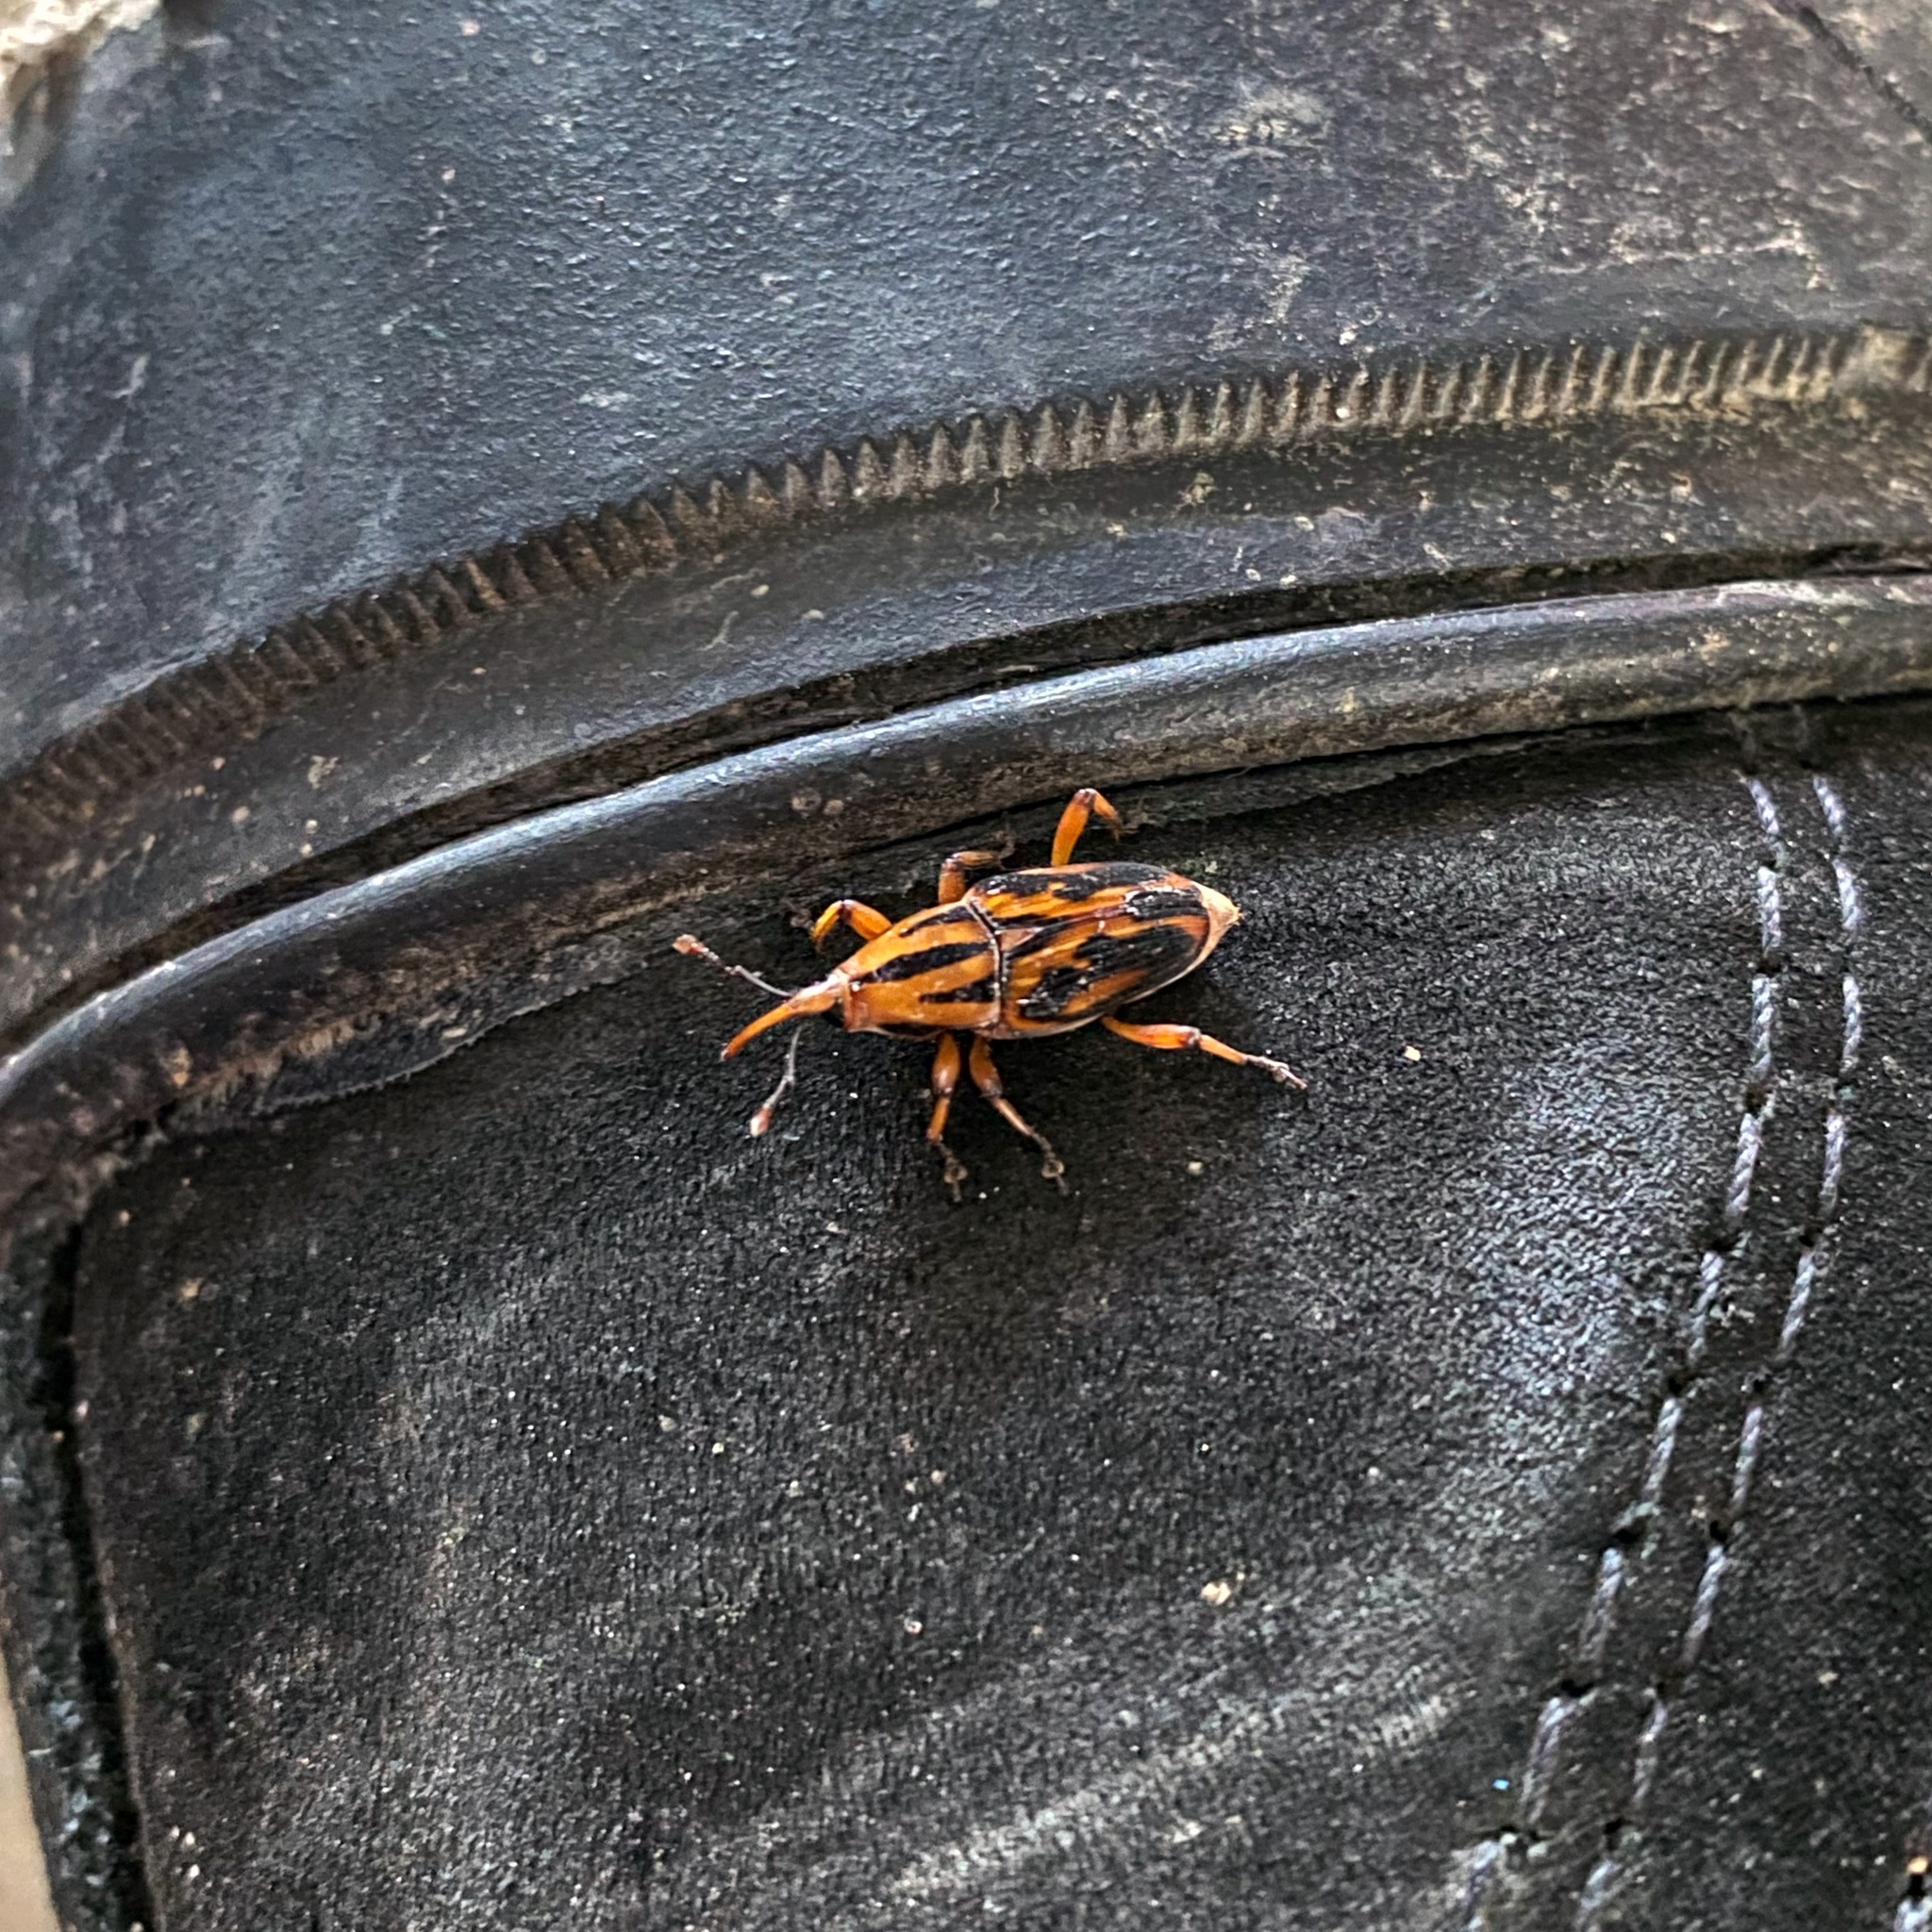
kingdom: Animalia
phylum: Arthropoda
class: Insecta
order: Coleoptera
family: Dryophthoridae
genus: Metamasius
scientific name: Metamasius hemipterus
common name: Weevil
